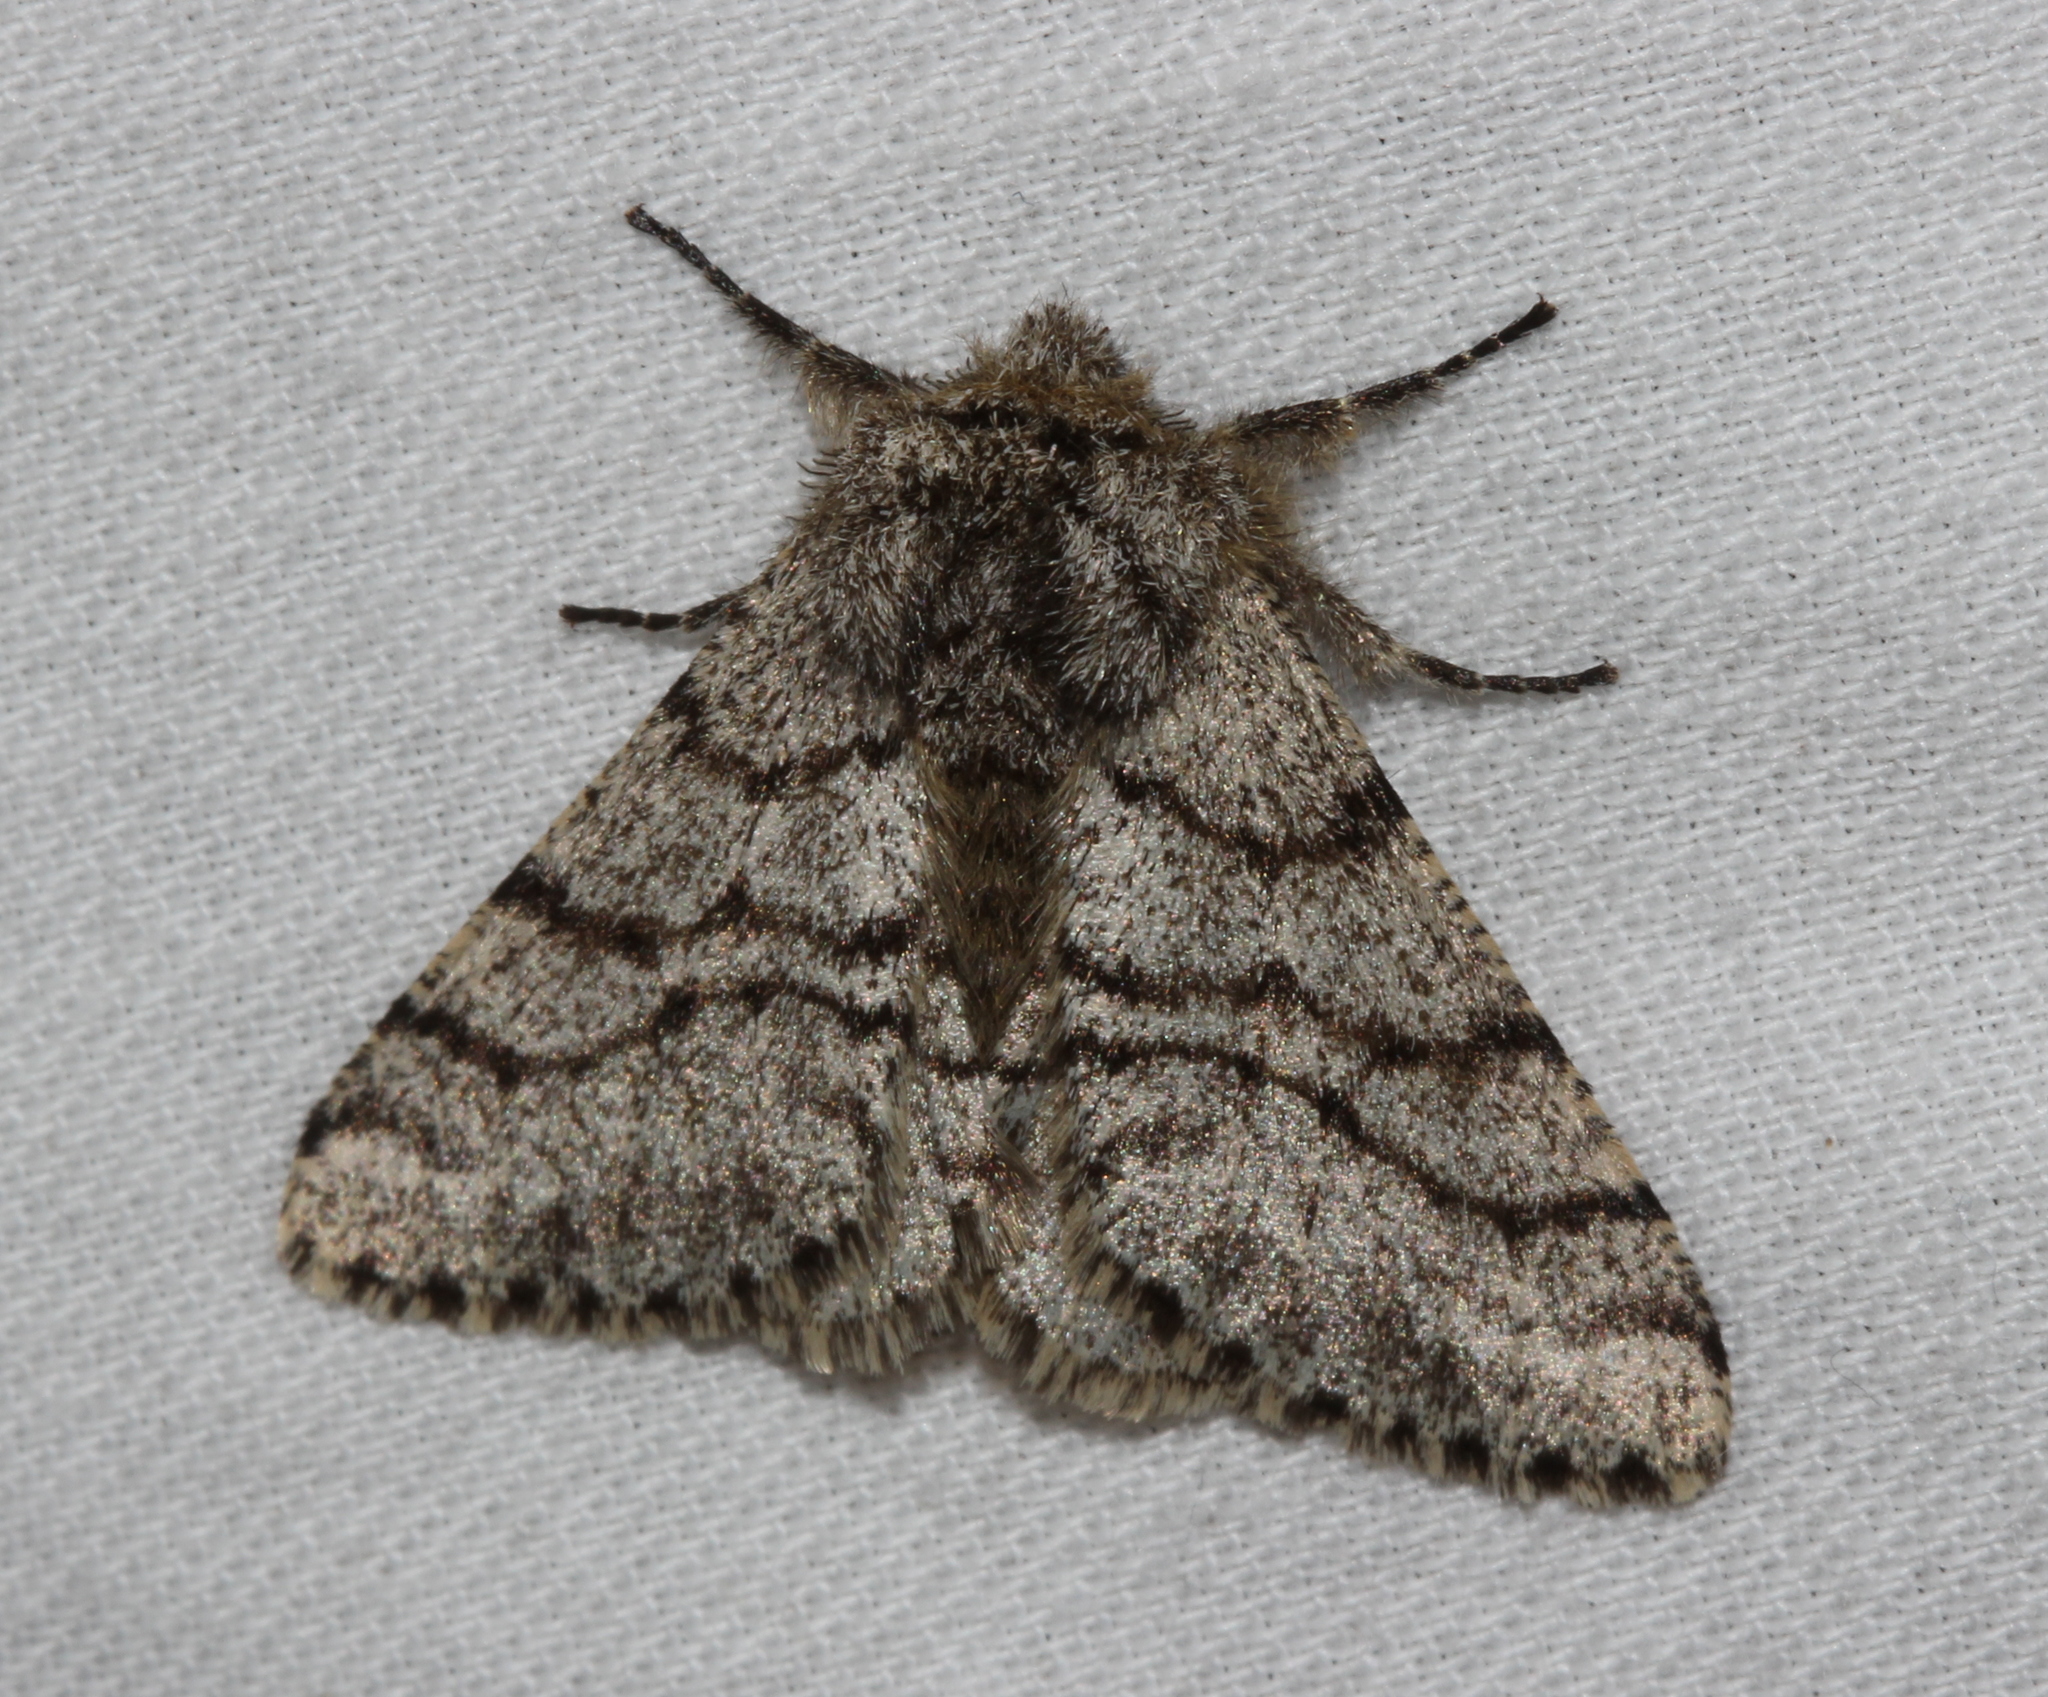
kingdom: Animalia
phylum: Arthropoda
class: Insecta
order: Lepidoptera
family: Geometridae
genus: Lycia
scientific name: Lycia hirtaria
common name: Brindled beauty
